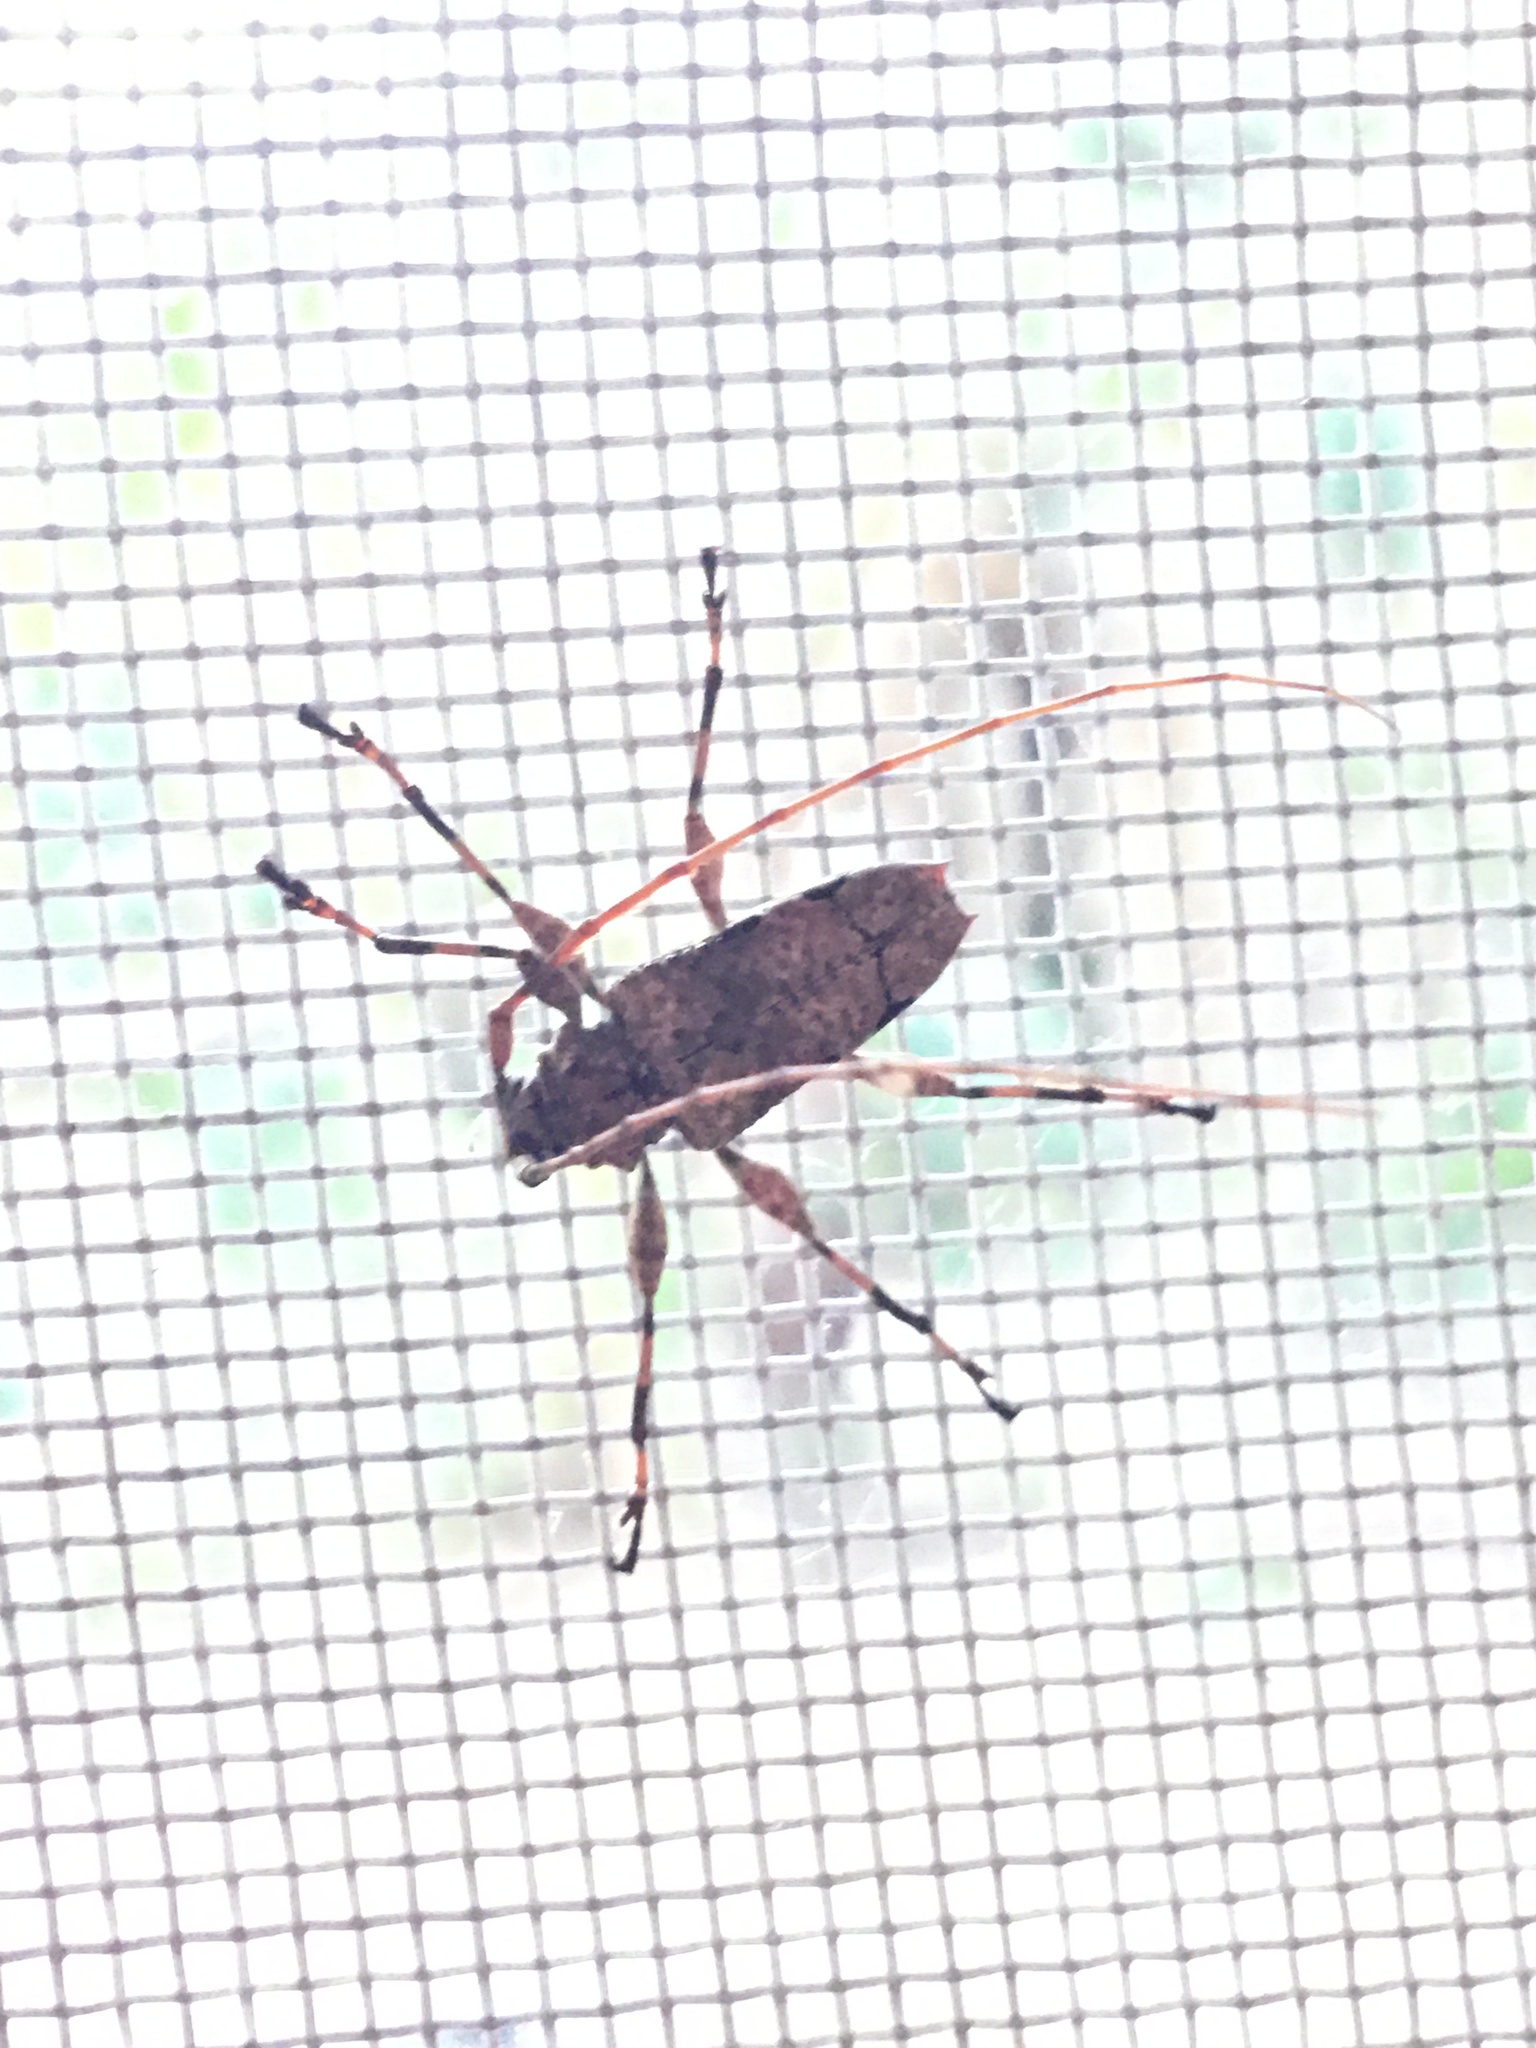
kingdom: Animalia
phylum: Arthropoda
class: Insecta
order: Coleoptera
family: Cerambycidae
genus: Oreodera
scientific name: Oreodera glauca
